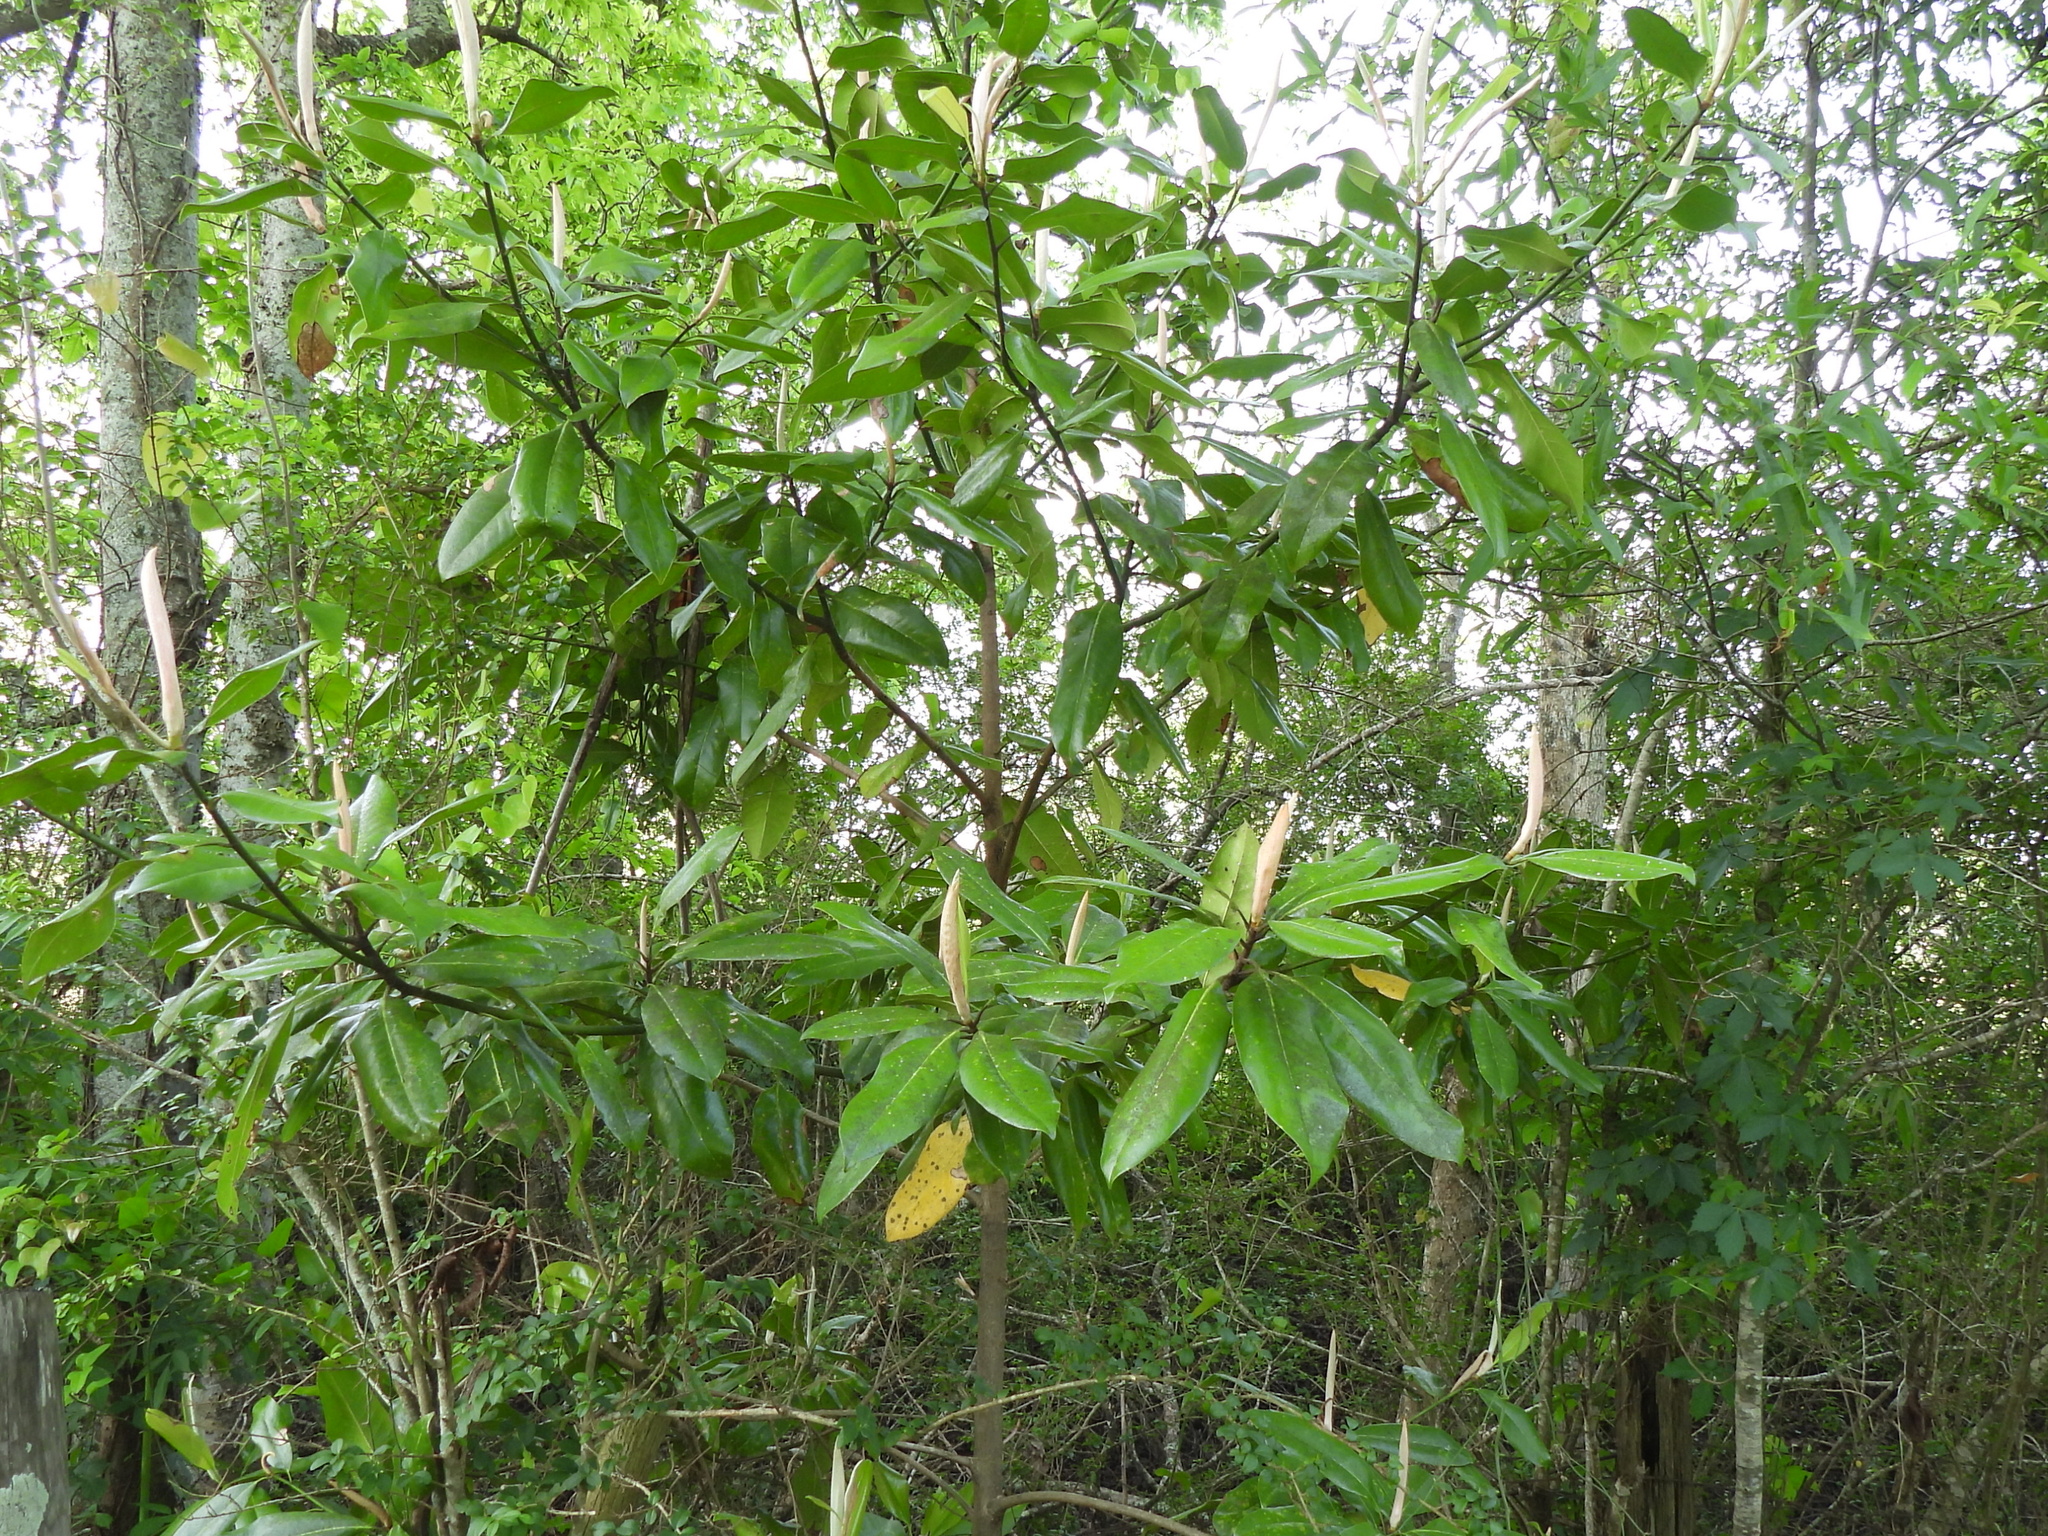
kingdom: Plantae
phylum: Tracheophyta
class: Magnoliopsida
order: Magnoliales
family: Magnoliaceae
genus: Magnolia
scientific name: Magnolia grandiflora
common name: Southern magnolia
